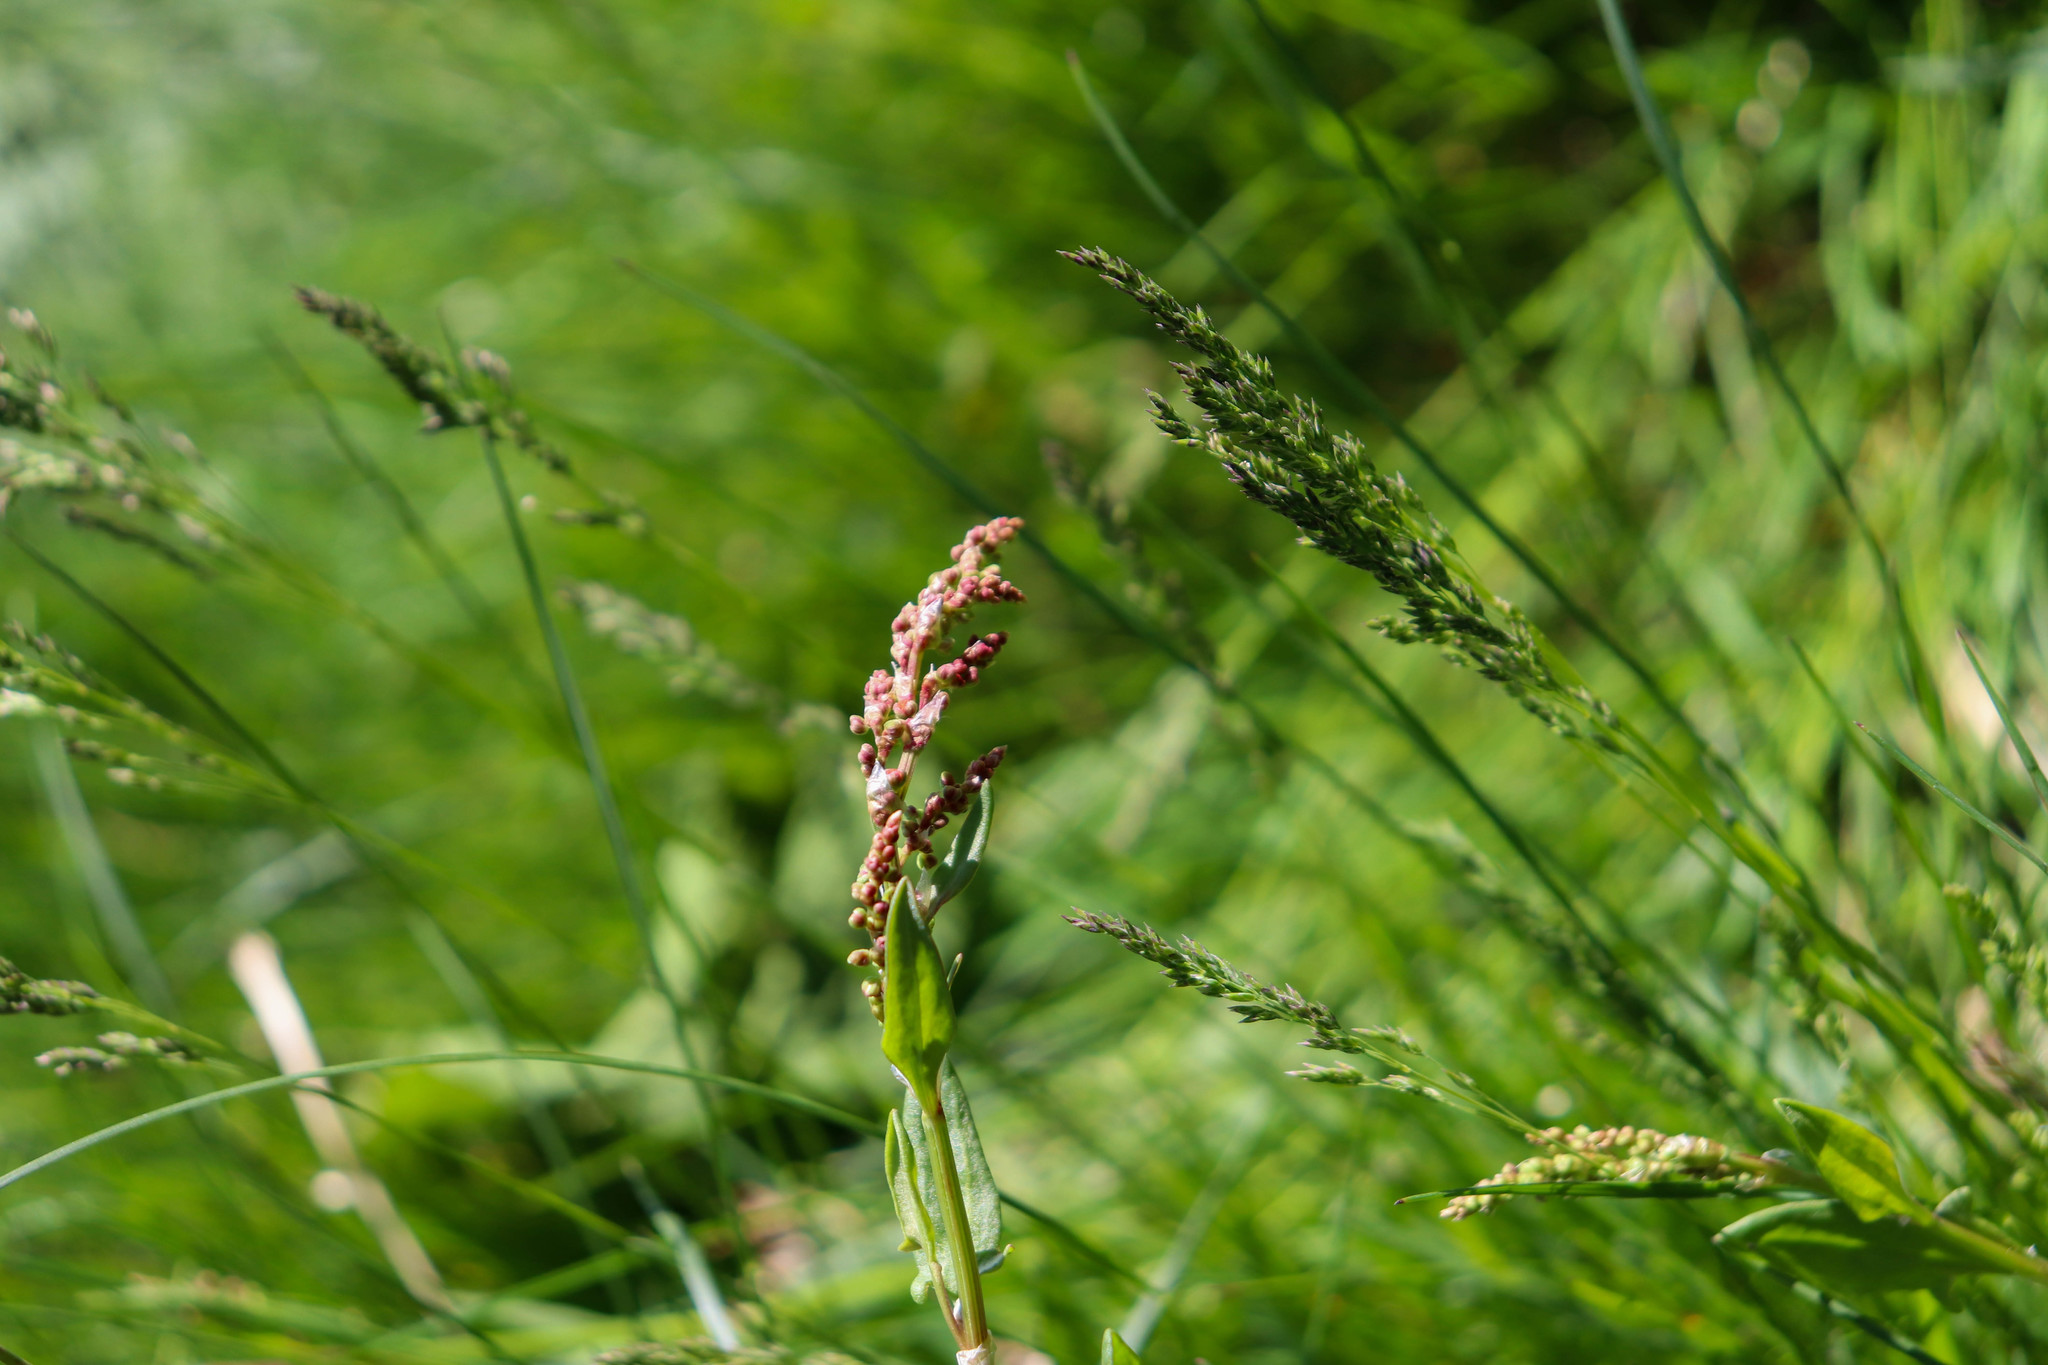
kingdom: Plantae
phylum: Tracheophyta
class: Magnoliopsida
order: Caryophyllales
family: Polygonaceae
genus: Rumex
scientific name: Rumex acetosella
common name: Common sheep sorrel
